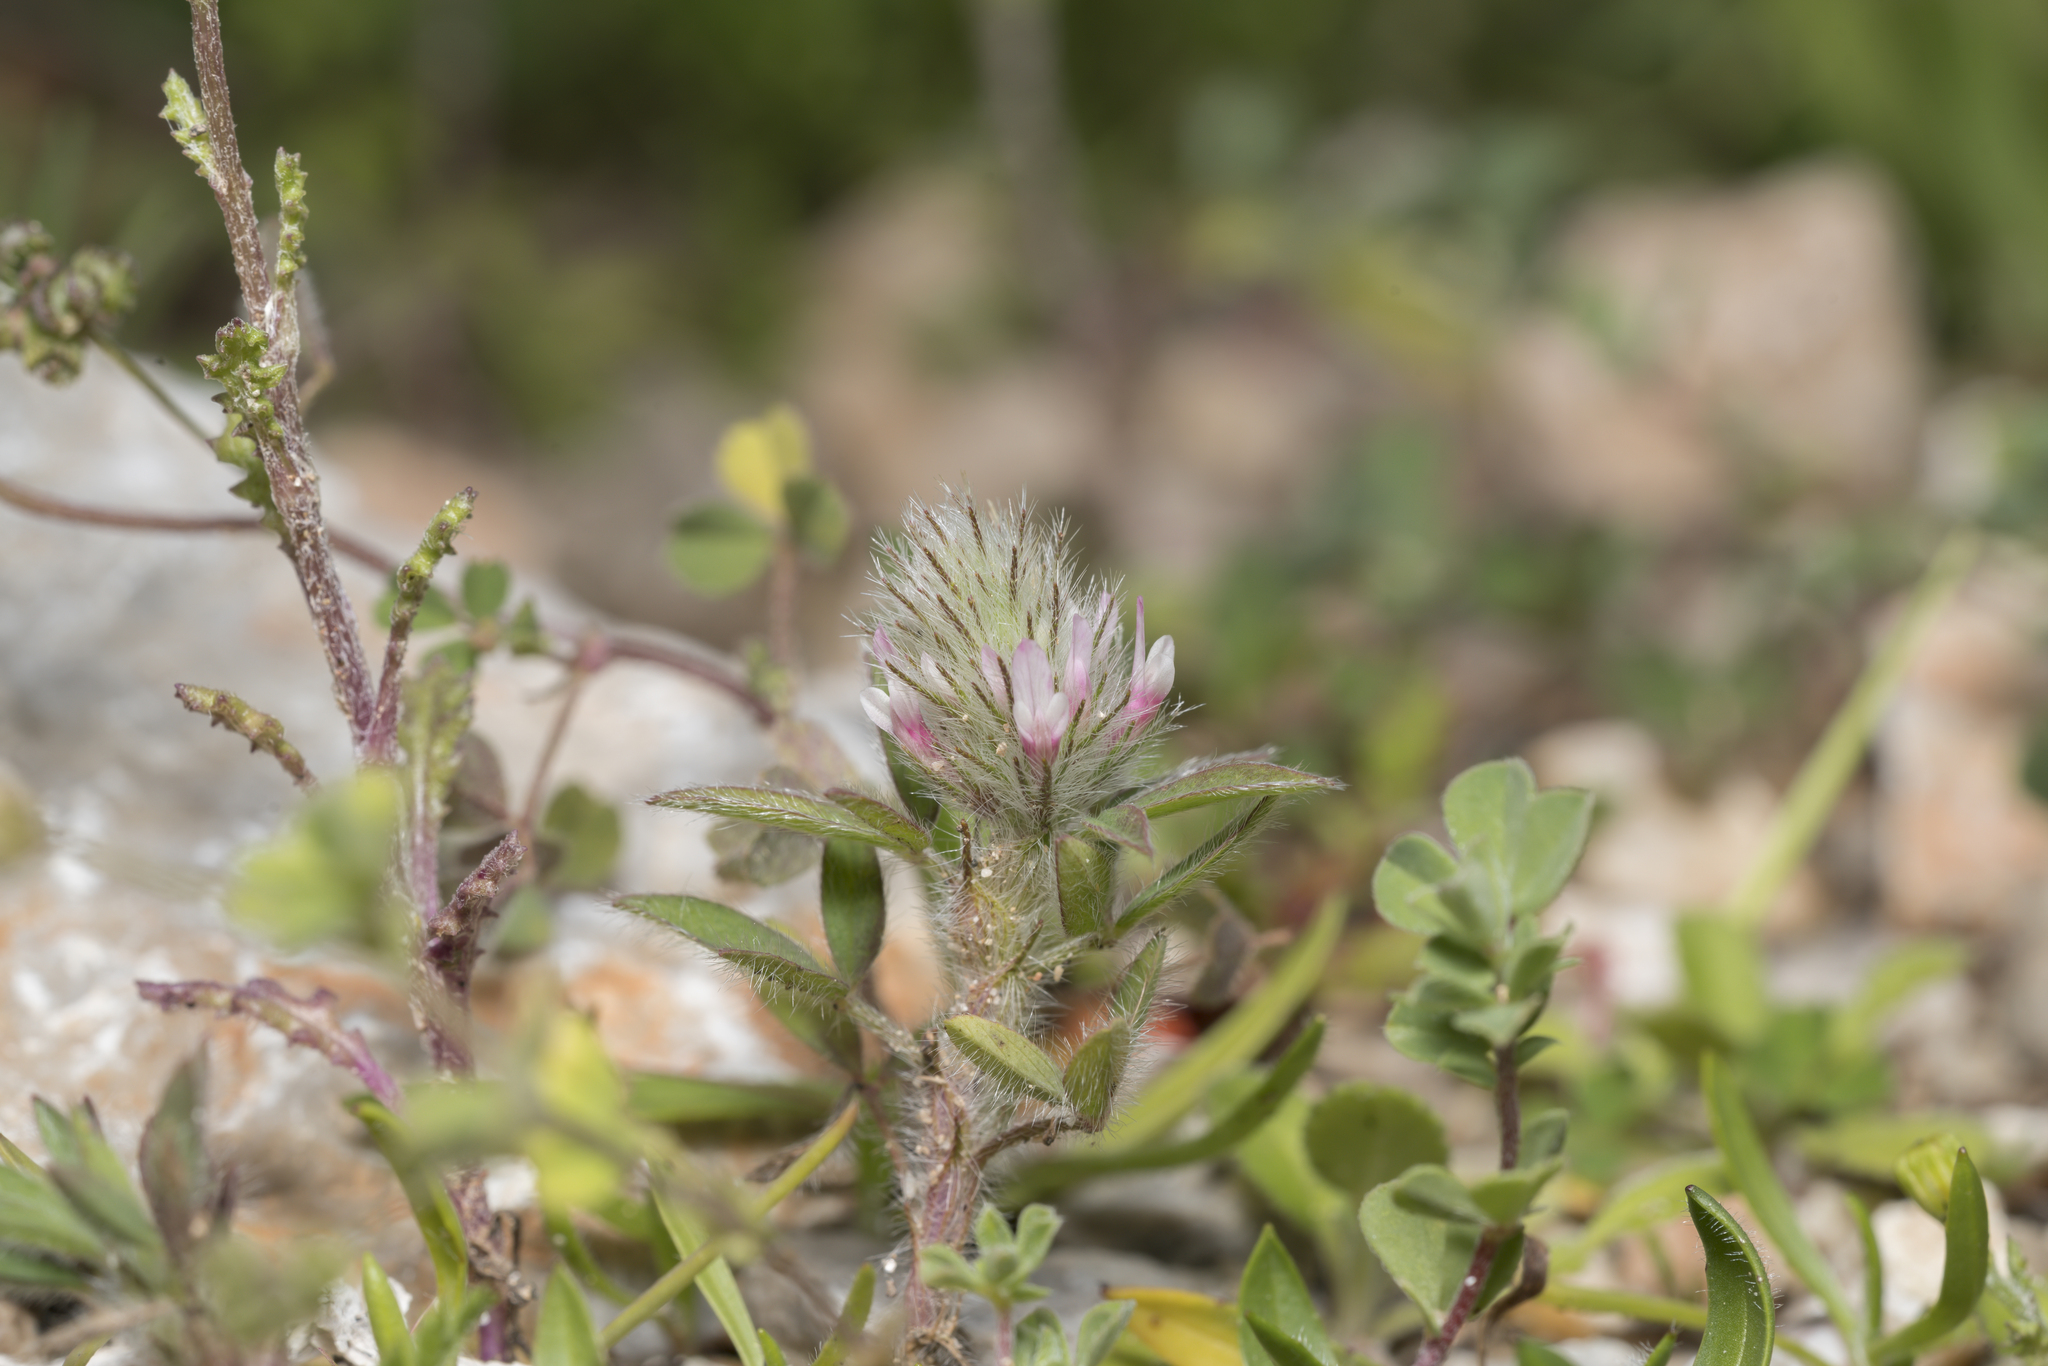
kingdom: Plantae
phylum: Tracheophyta
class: Magnoliopsida
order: Fabales
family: Fabaceae
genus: Trifolium
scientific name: Trifolium infamia-ponertii
